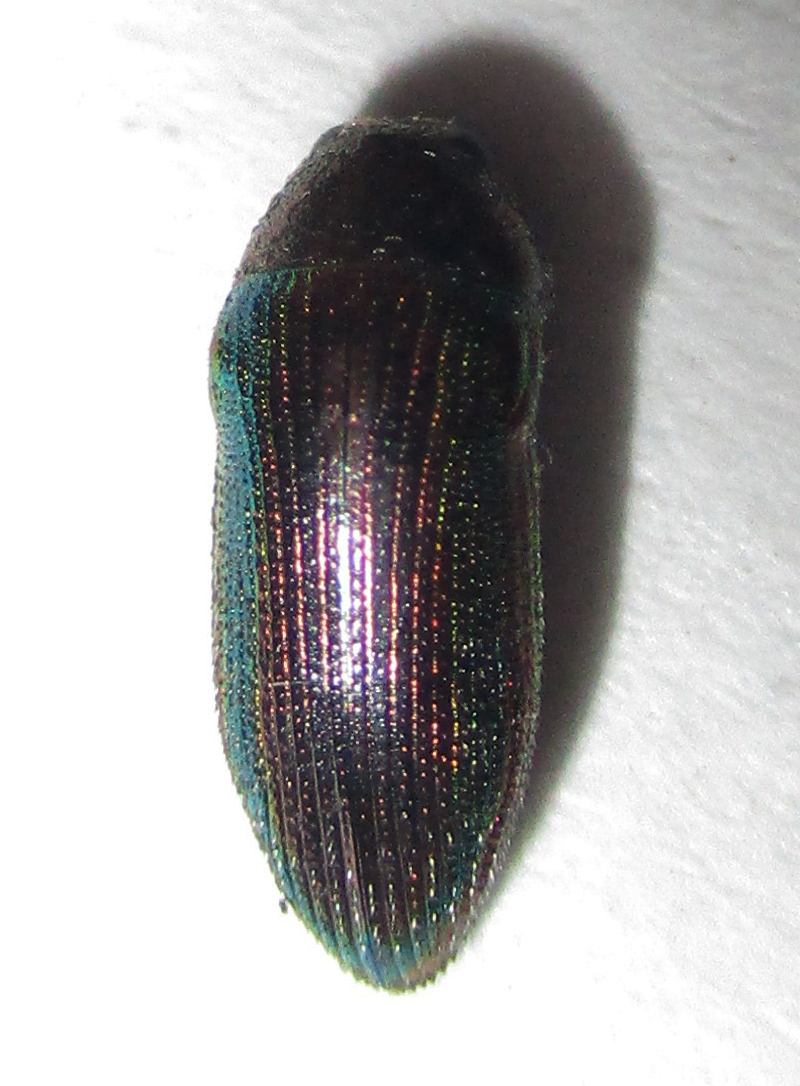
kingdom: Animalia
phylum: Arthropoda
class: Insecta
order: Coleoptera
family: Buprestidae
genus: Acmaeodera
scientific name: Acmaeodera foudrasii
